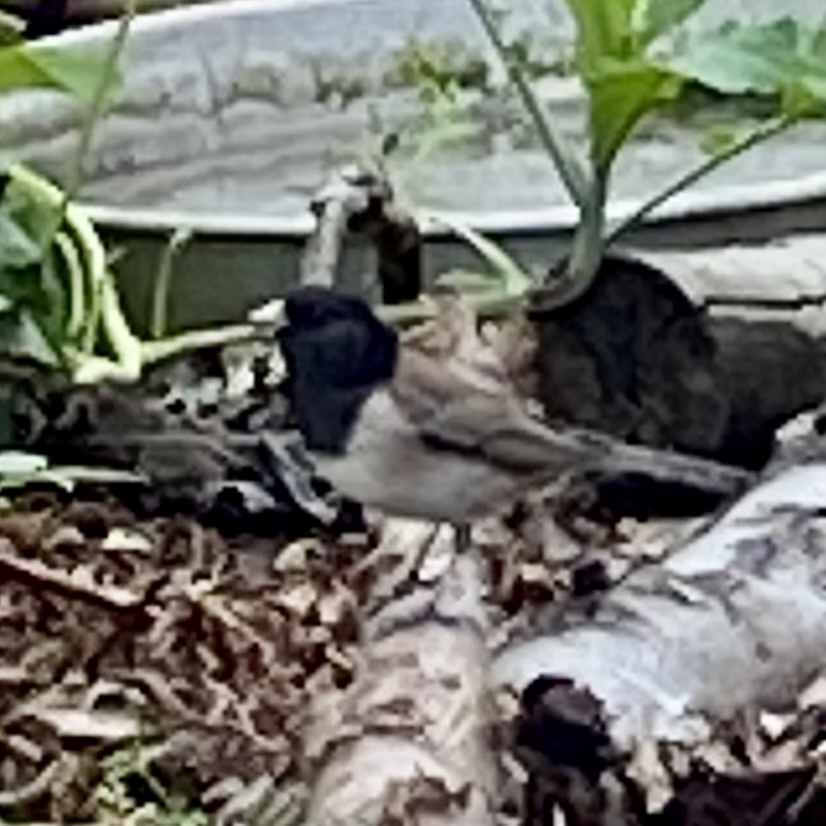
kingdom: Animalia
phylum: Chordata
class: Aves
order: Passeriformes
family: Passerellidae
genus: Junco
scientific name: Junco hyemalis
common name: Dark-eyed junco
